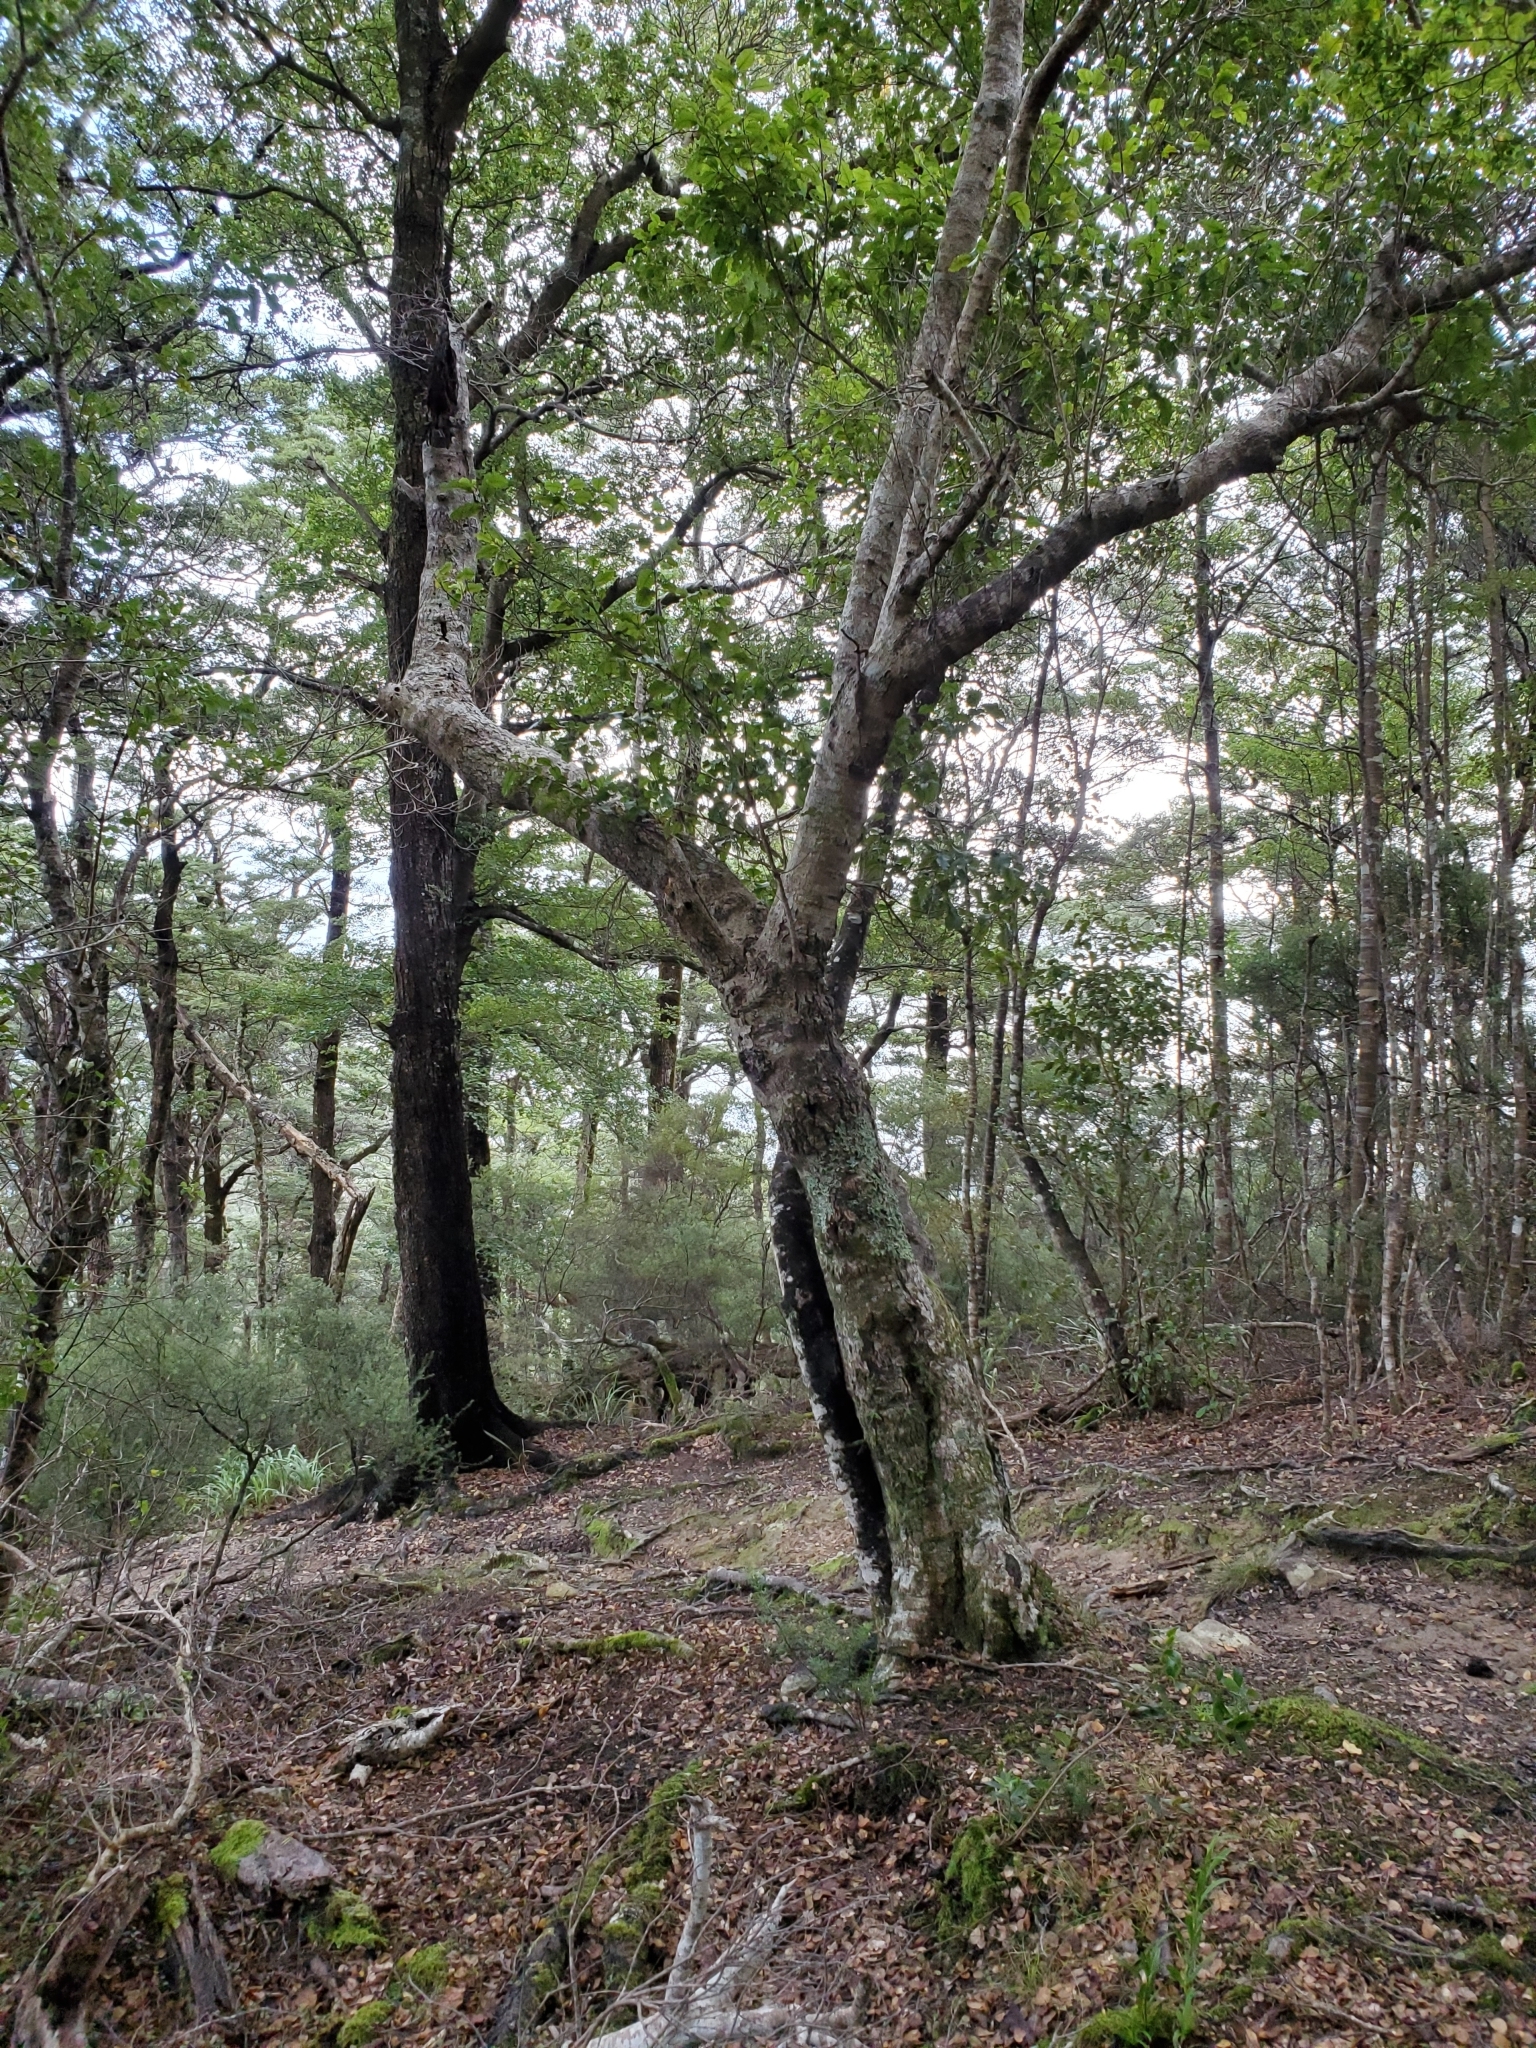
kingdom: Plantae
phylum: Tracheophyta
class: Liliopsida
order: Asparagales
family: Orchidaceae
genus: Drymoanthus
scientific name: Drymoanthus flavus
